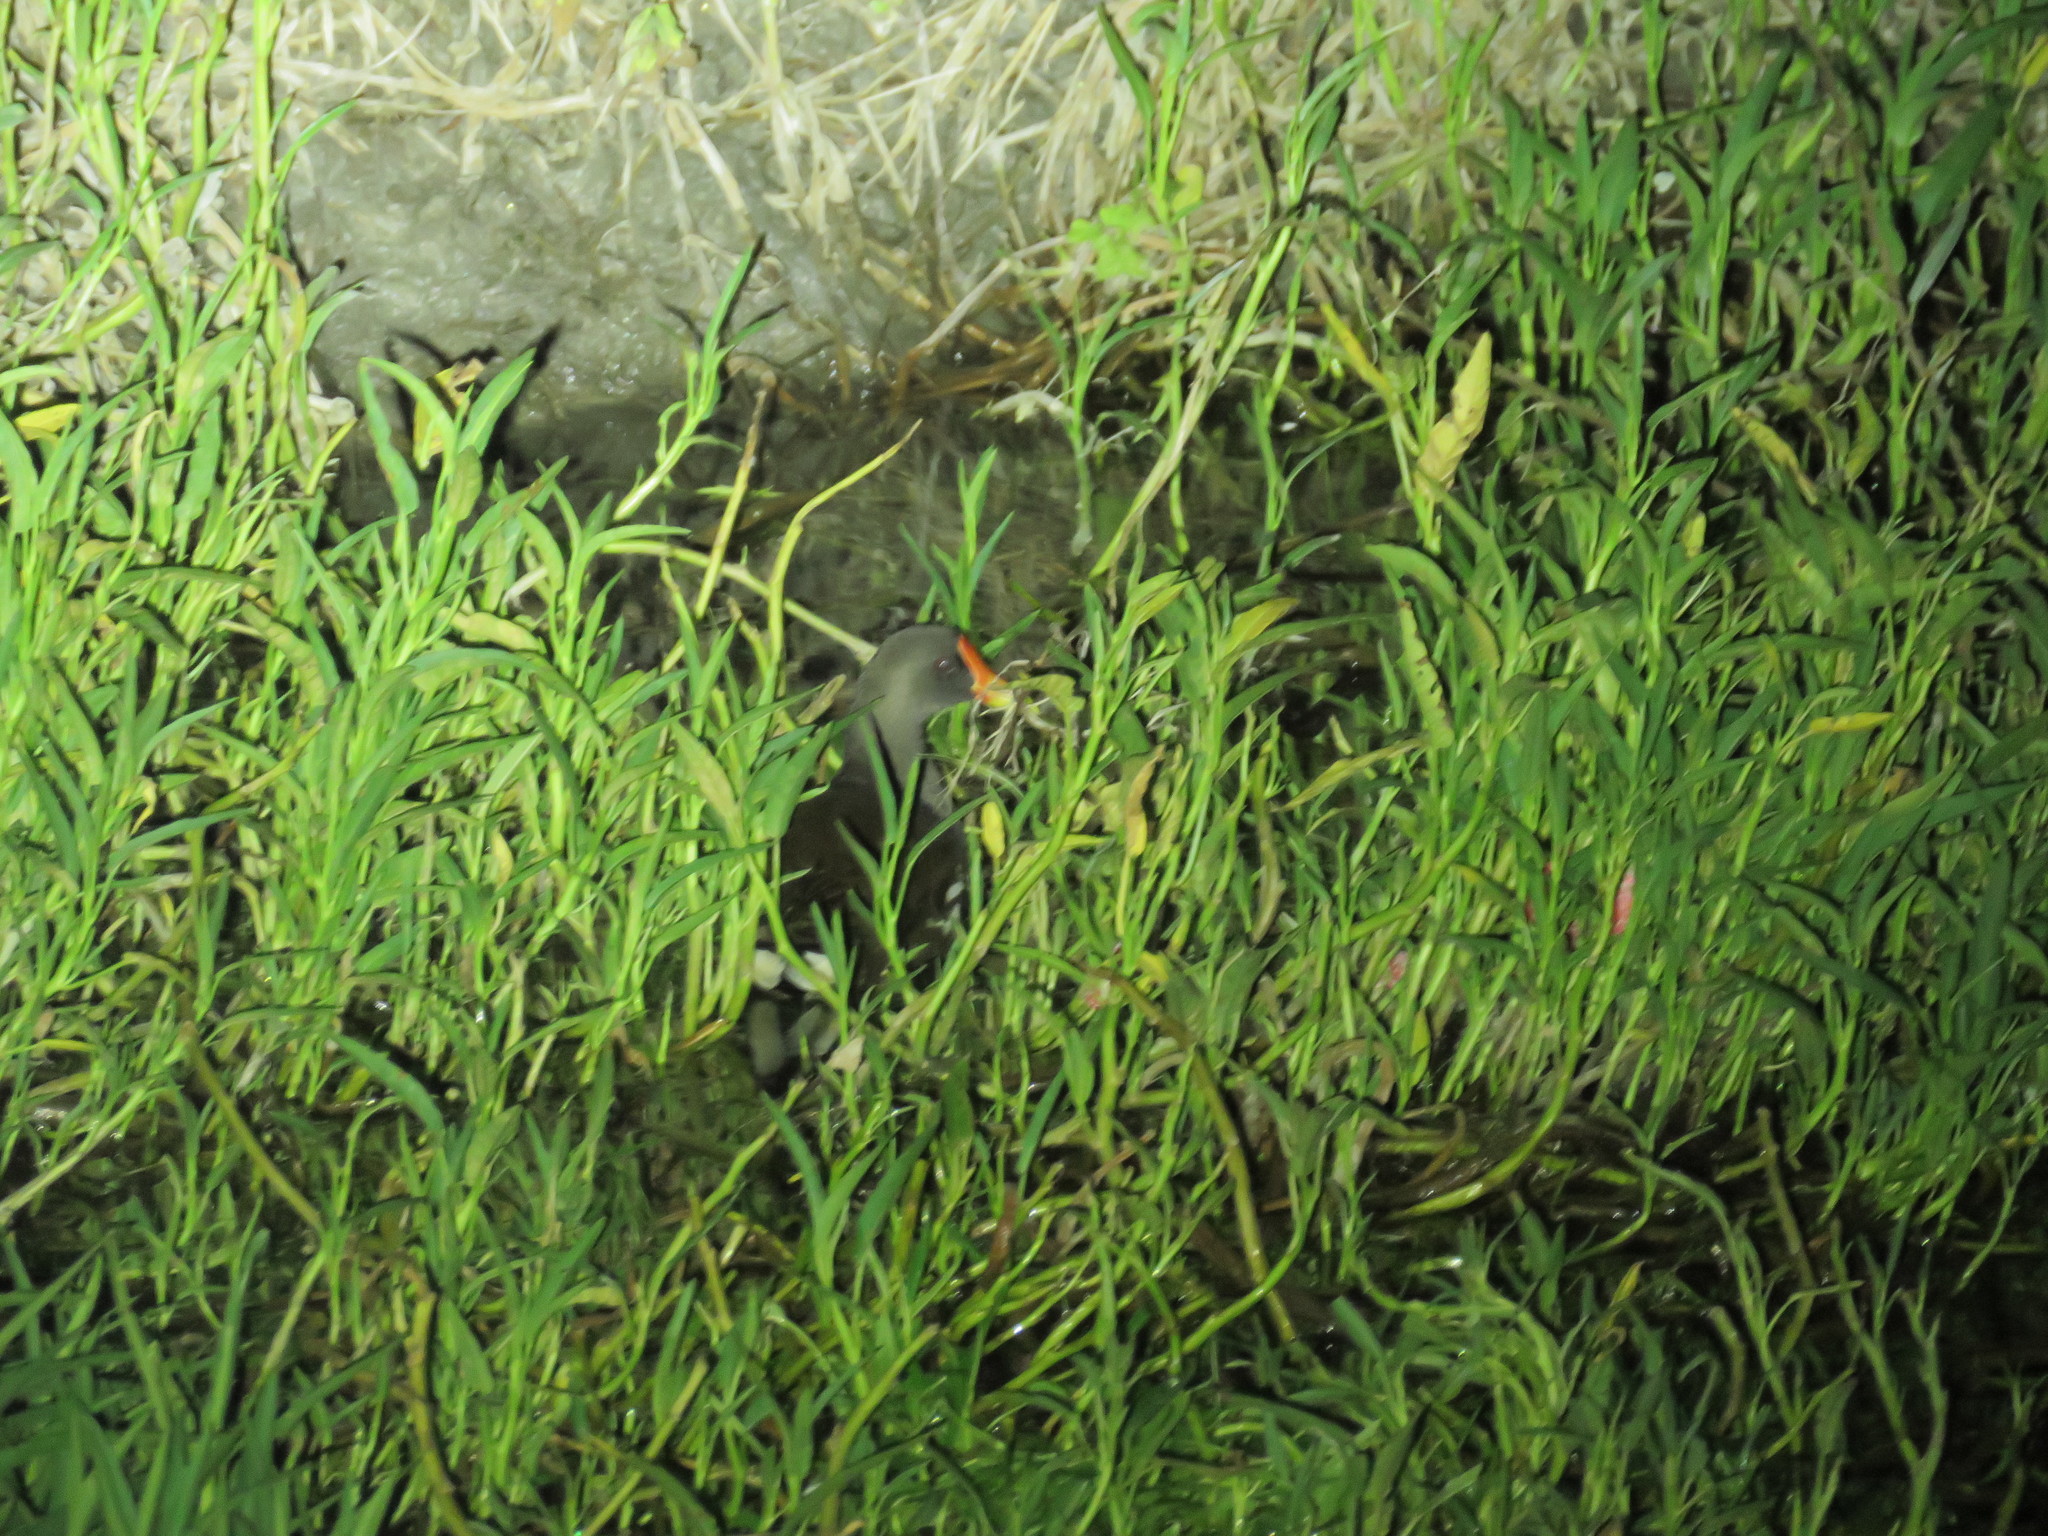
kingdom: Animalia
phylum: Chordata
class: Aves
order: Gruiformes
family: Rallidae
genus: Gallinula
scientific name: Gallinula chloropus
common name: Common moorhen
